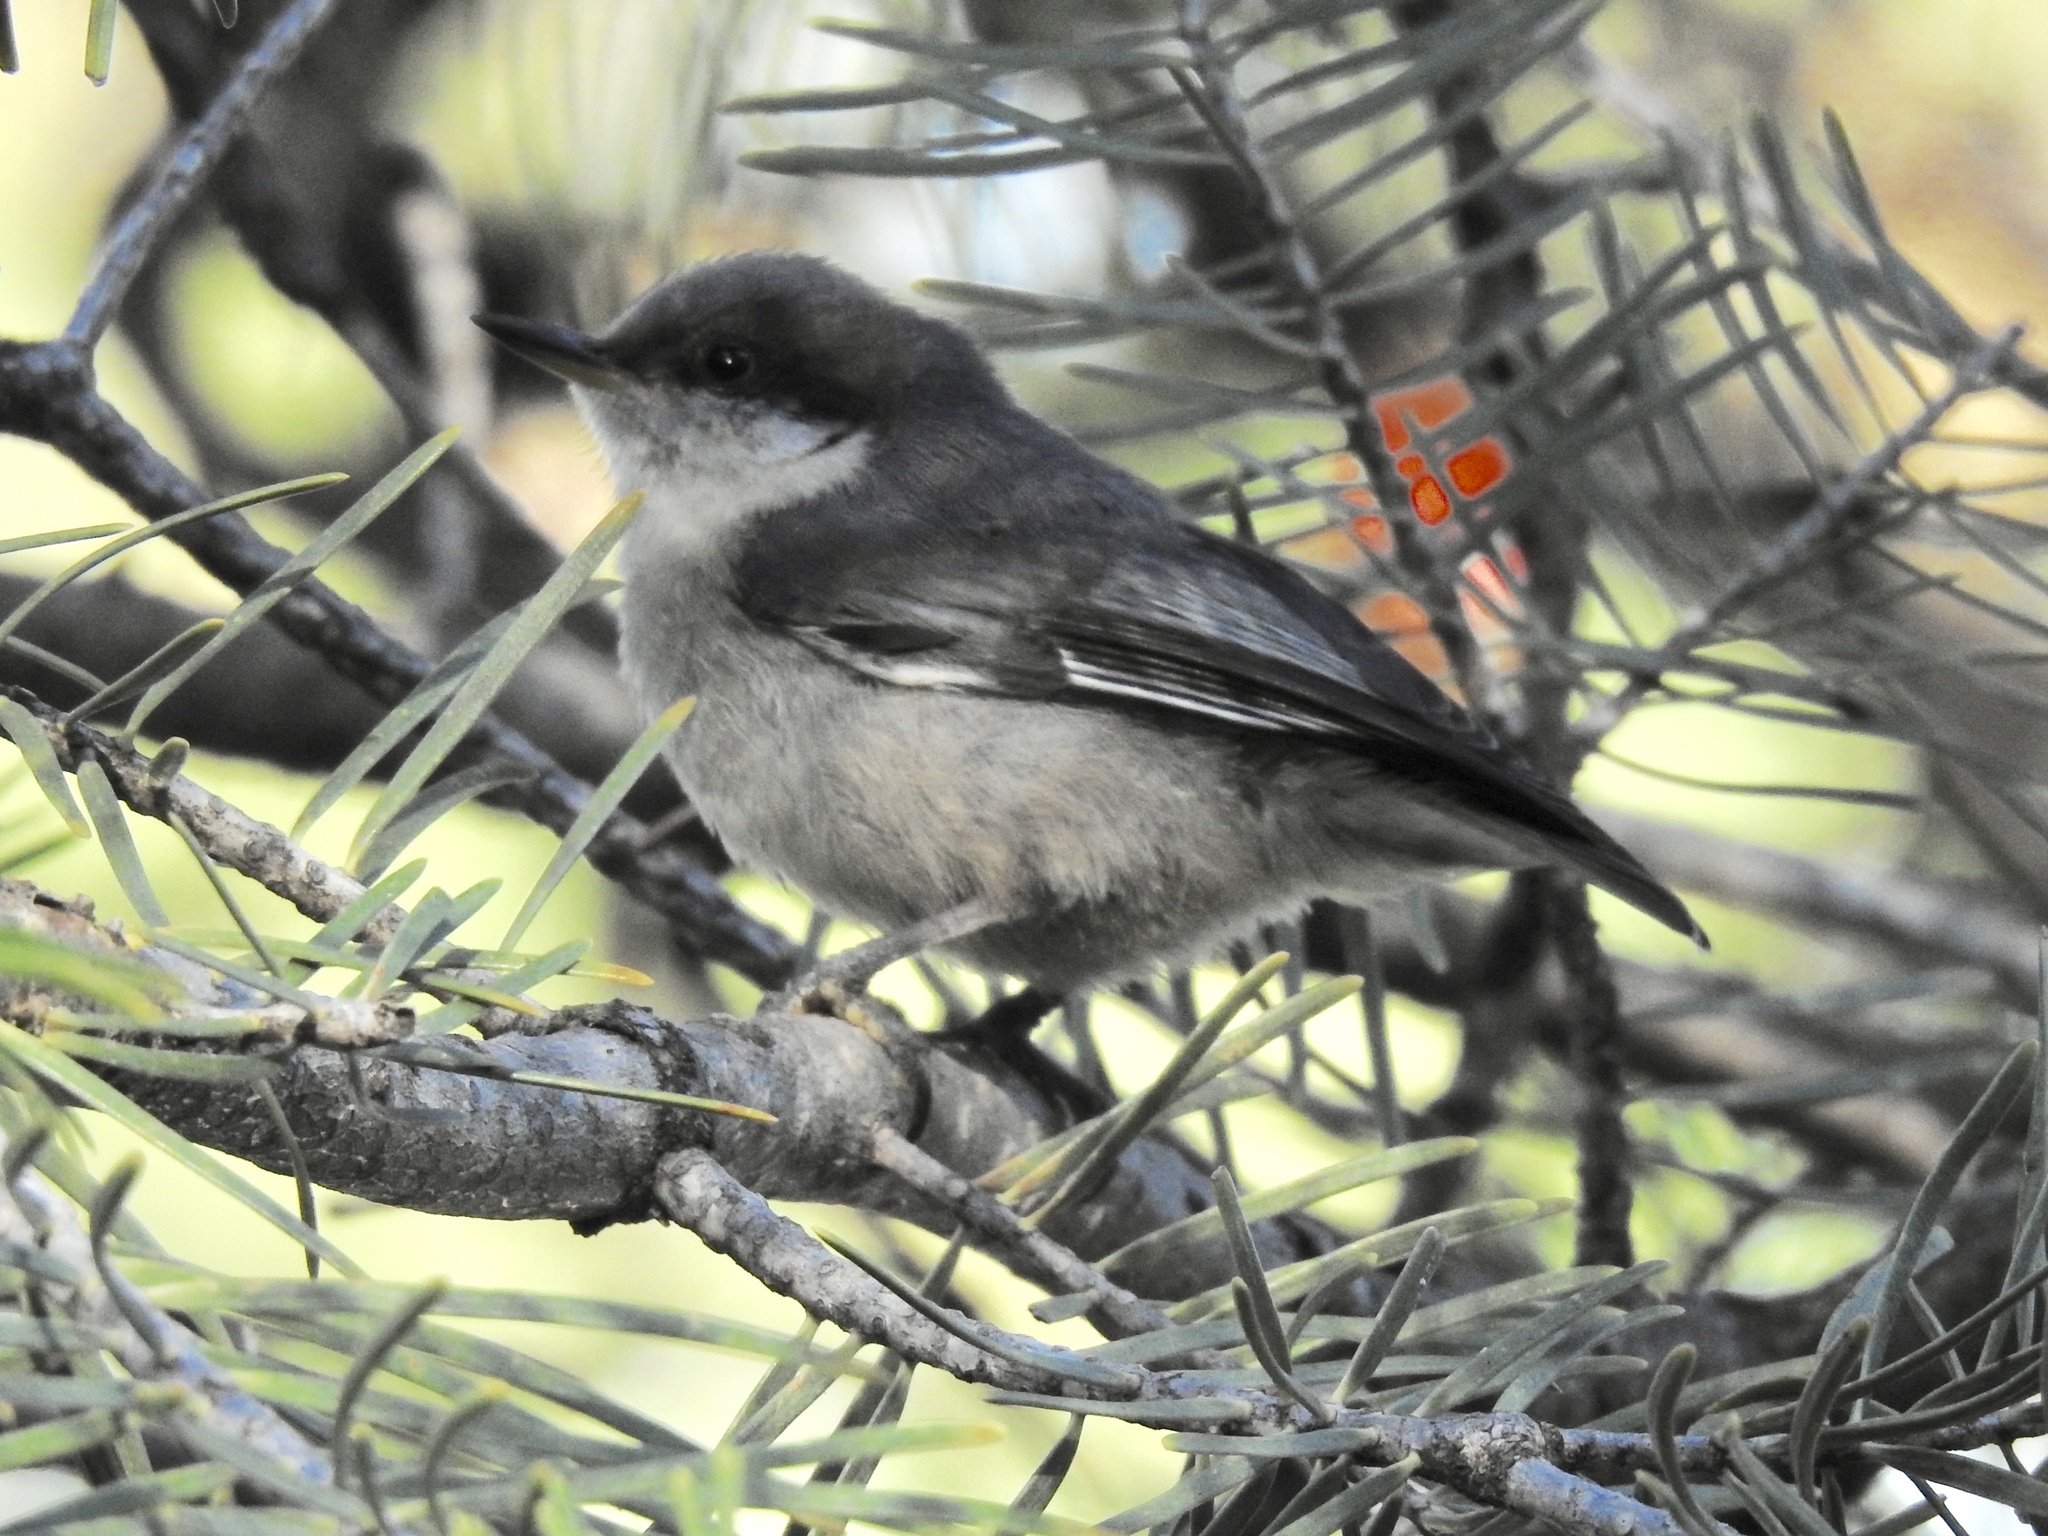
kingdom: Animalia
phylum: Chordata
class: Aves
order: Passeriformes
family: Sittidae
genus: Sitta
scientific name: Sitta pygmaea
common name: Pygmy nuthatch
